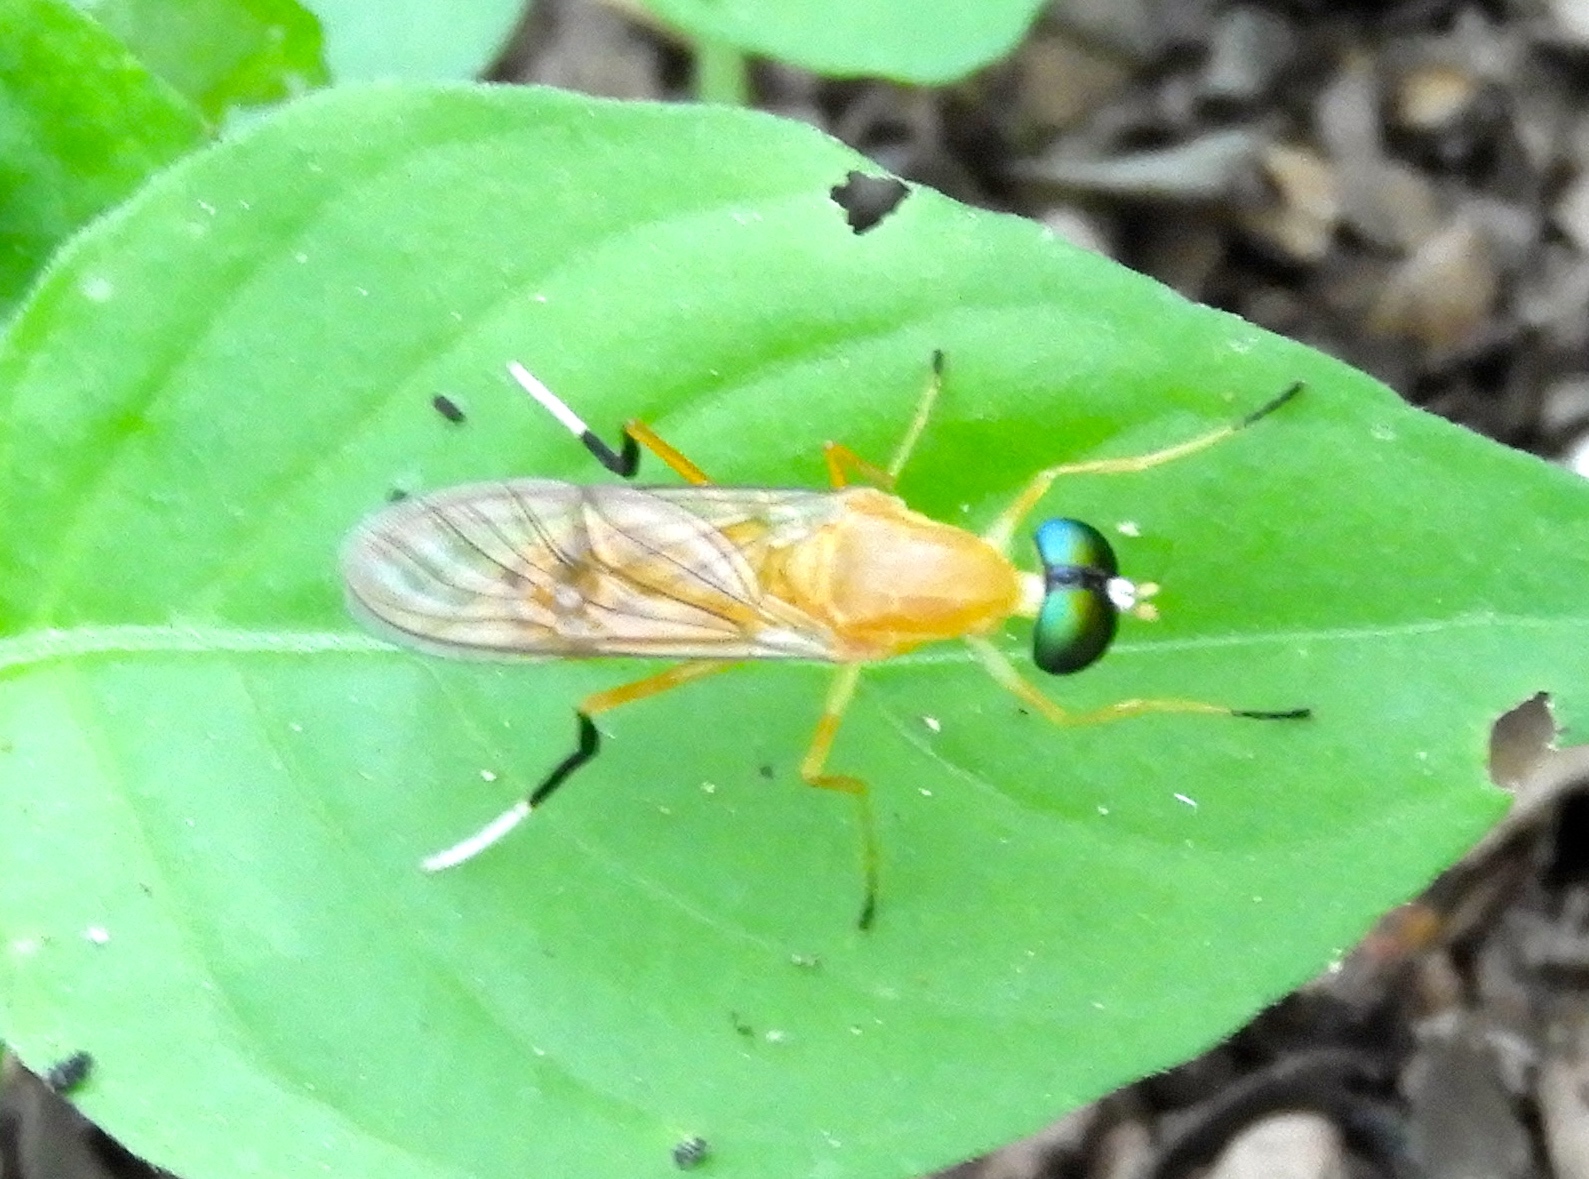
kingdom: Animalia
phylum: Arthropoda
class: Insecta
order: Diptera
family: Stratiomyidae
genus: Ptecticus
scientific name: Ptecticus
